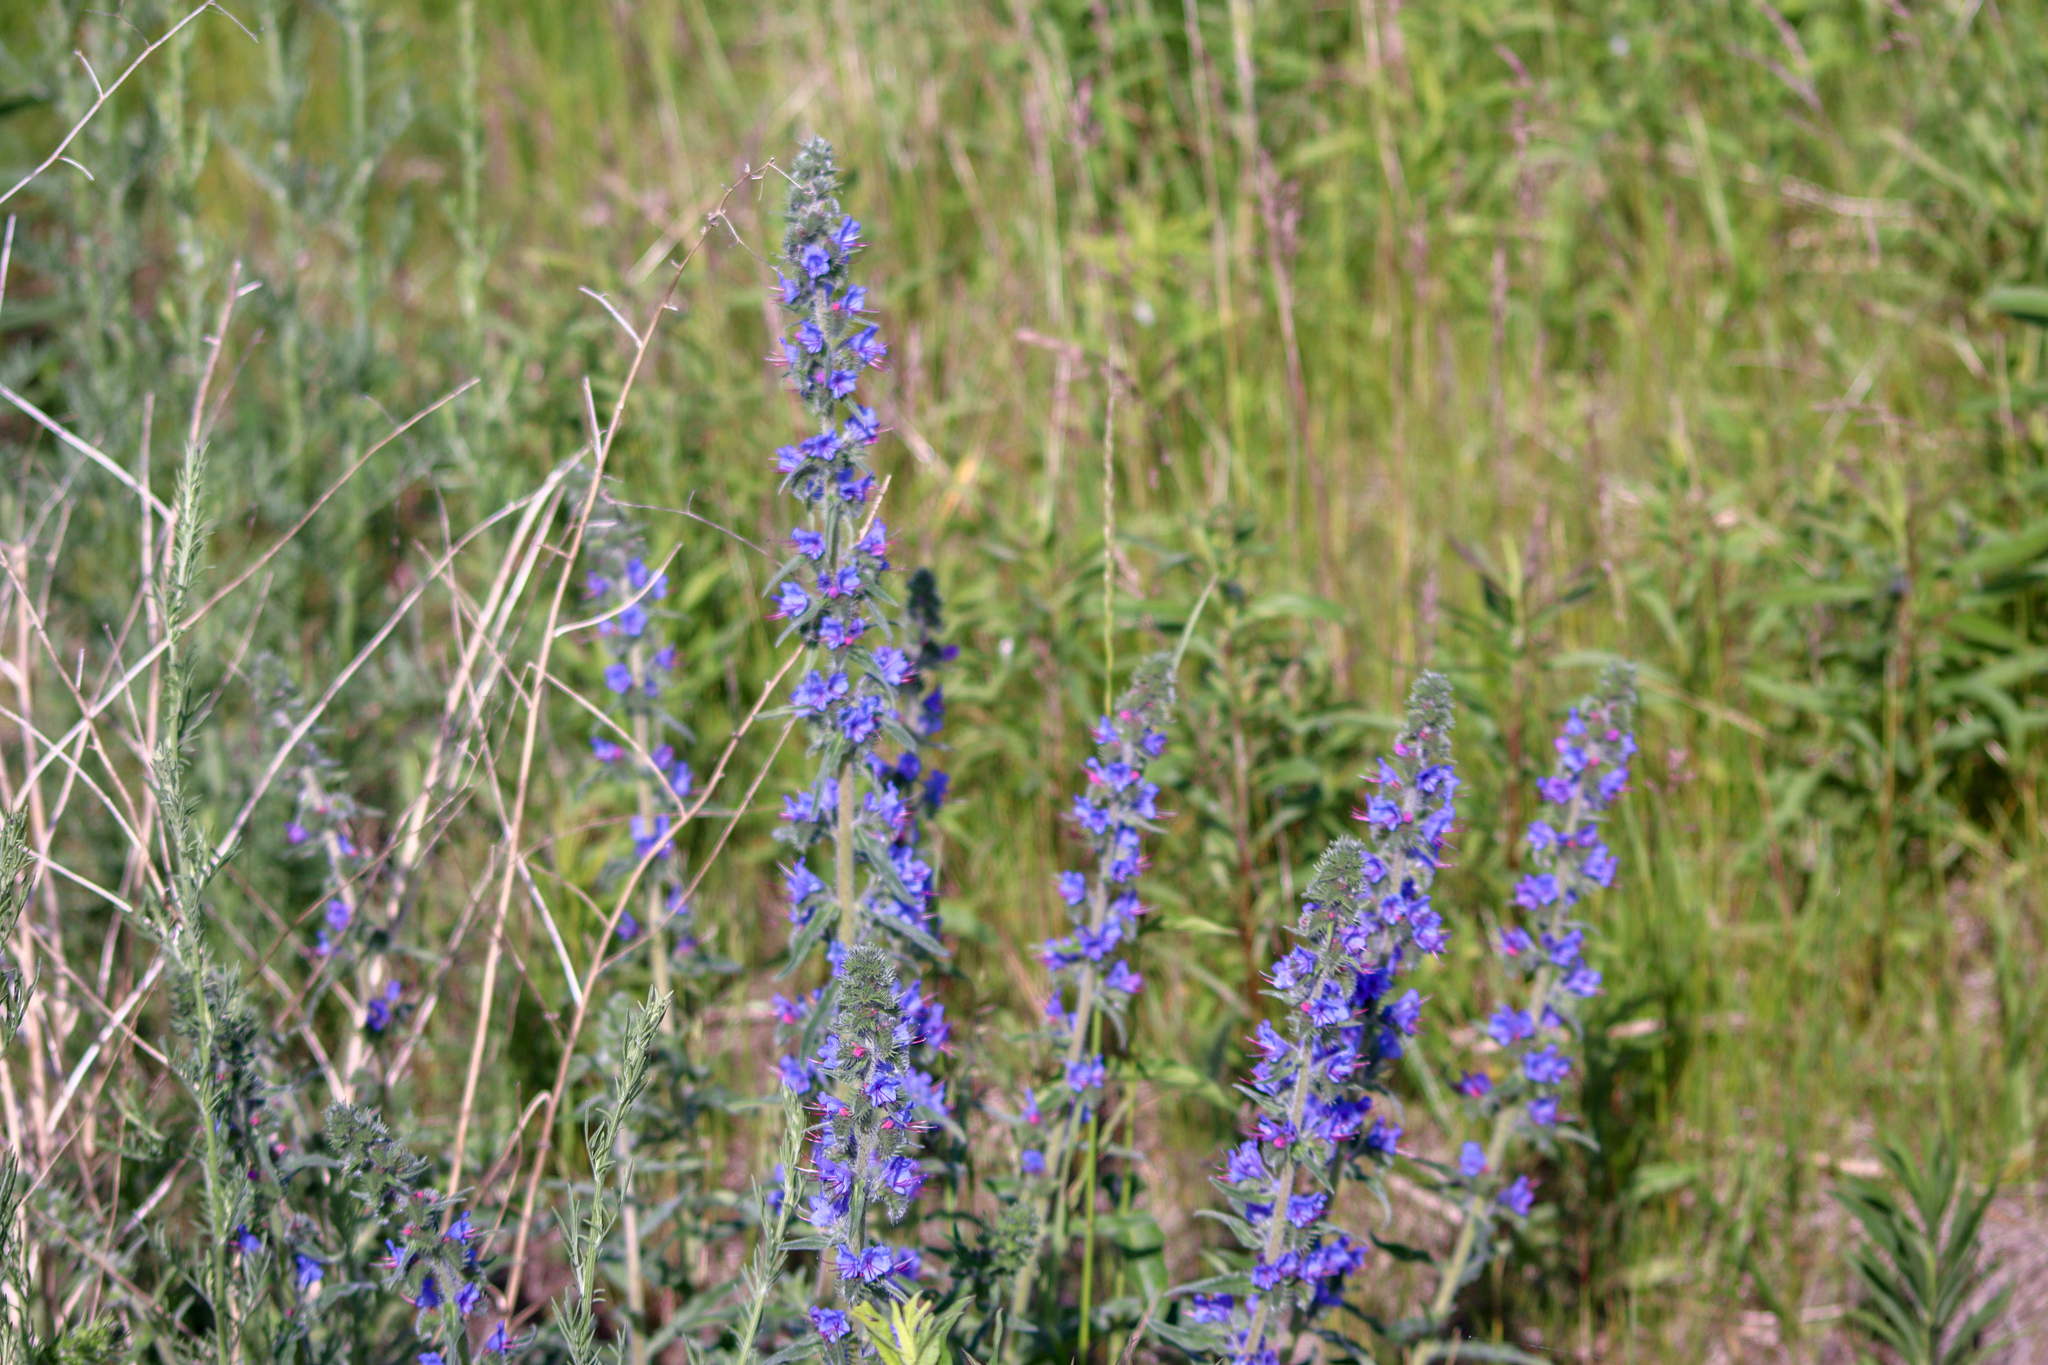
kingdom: Plantae
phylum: Tracheophyta
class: Magnoliopsida
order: Boraginales
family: Boraginaceae
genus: Echium
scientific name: Echium vulgare
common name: Common viper's bugloss
